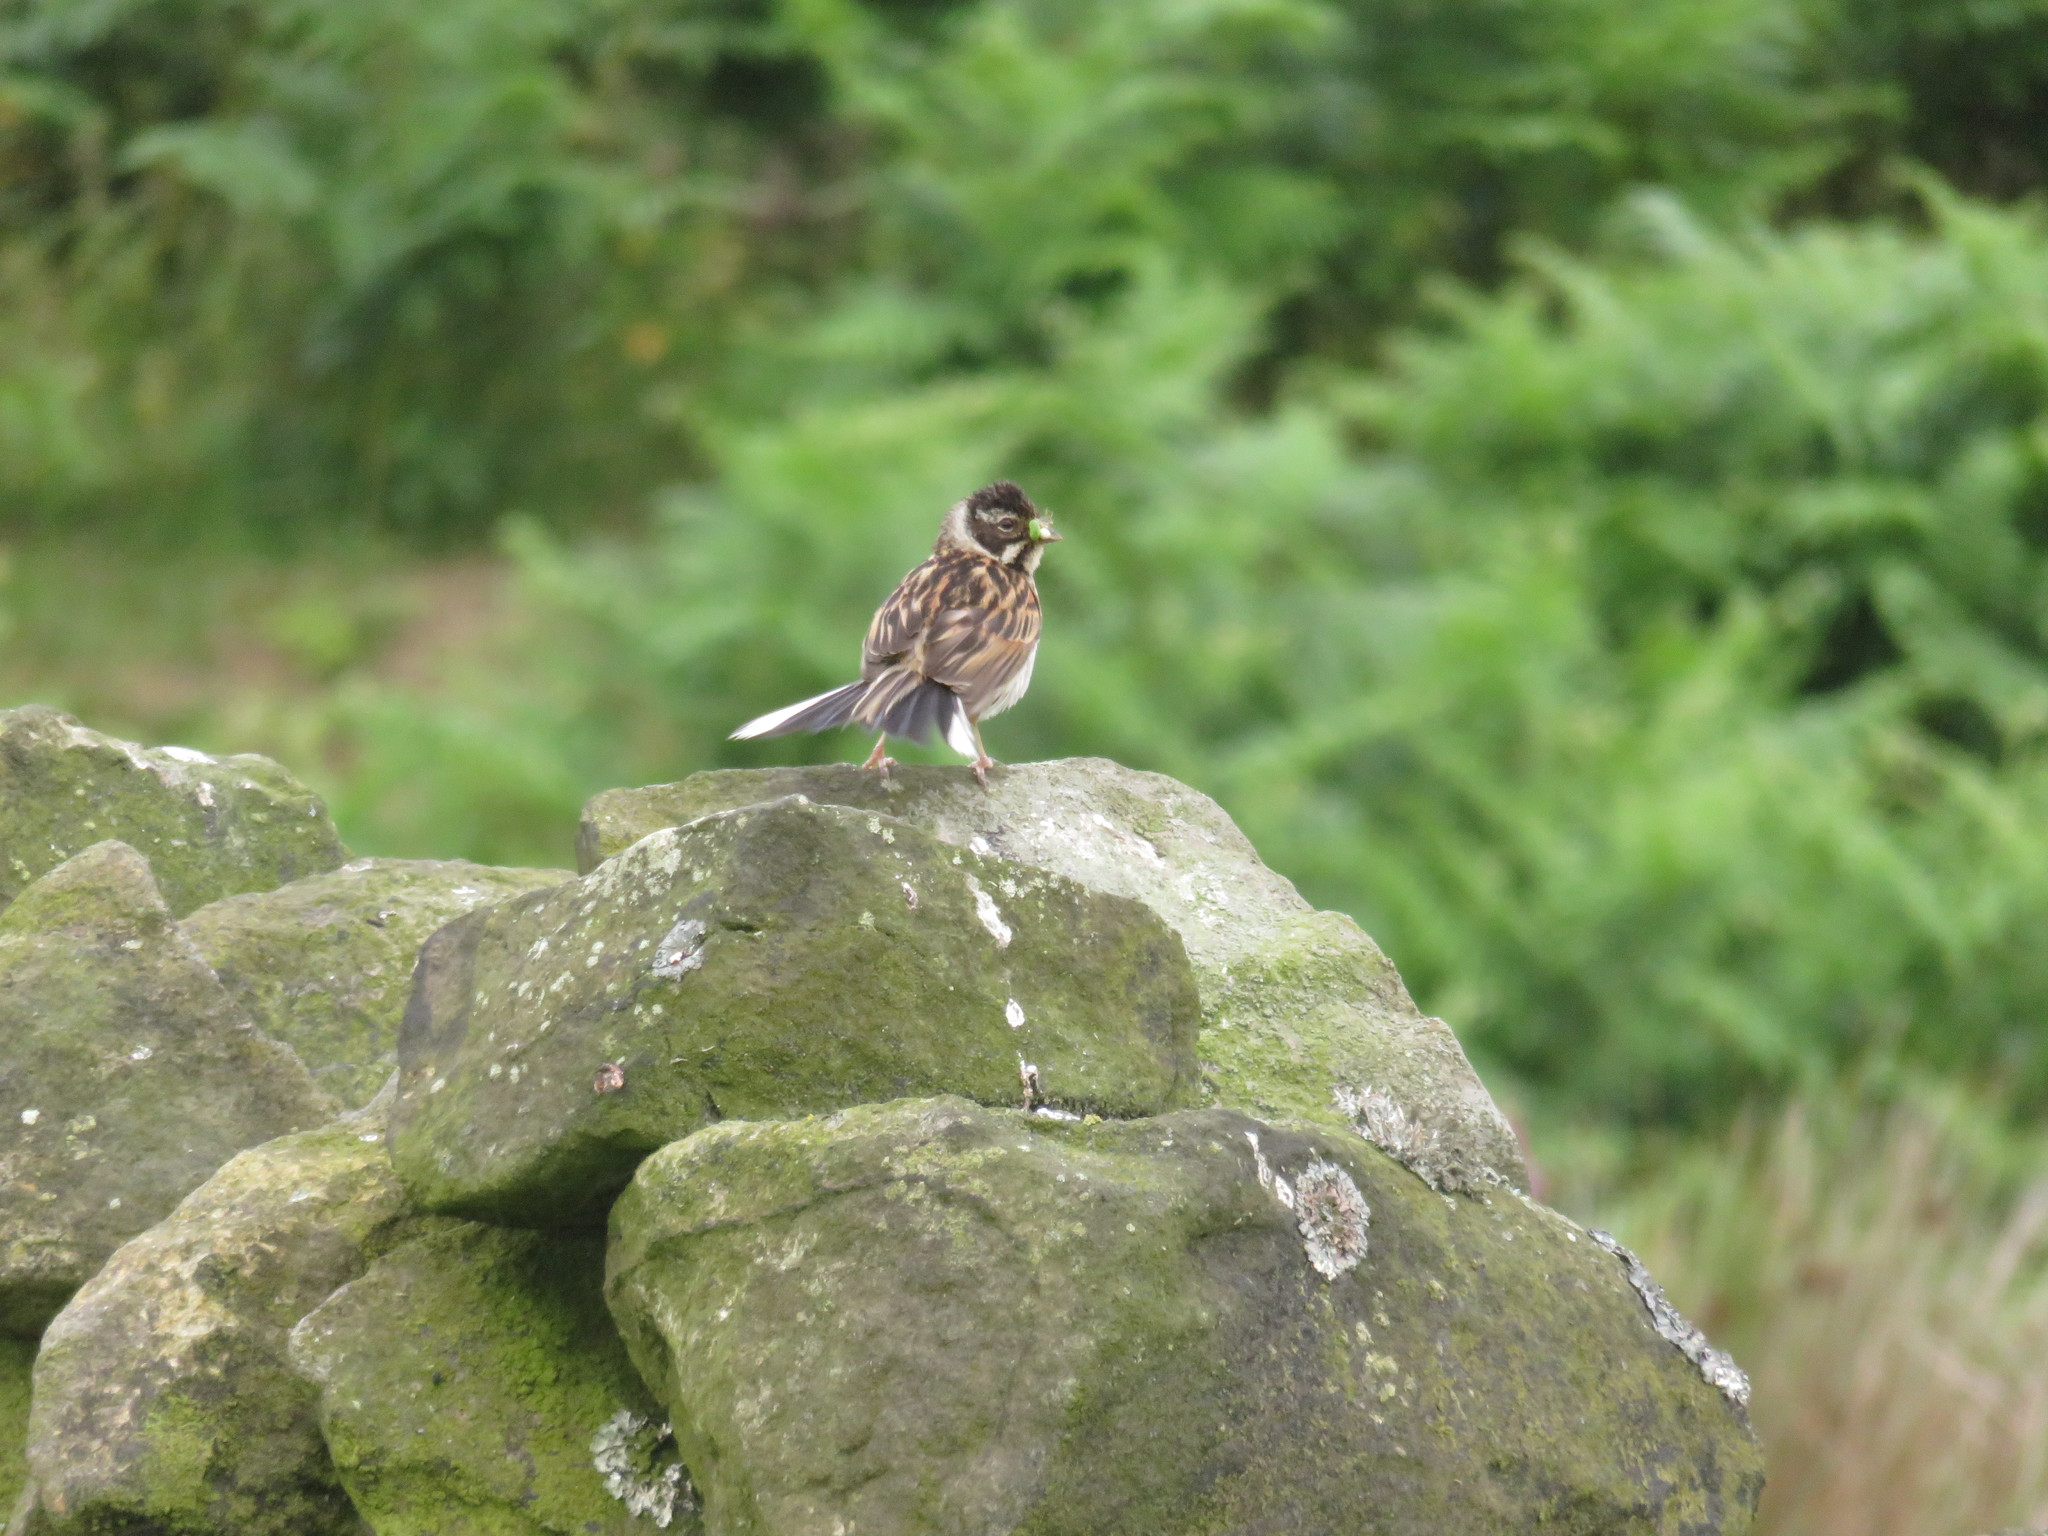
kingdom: Animalia
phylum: Chordata
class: Aves
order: Passeriformes
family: Emberizidae
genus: Emberiza
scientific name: Emberiza schoeniclus
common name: Reed bunting
